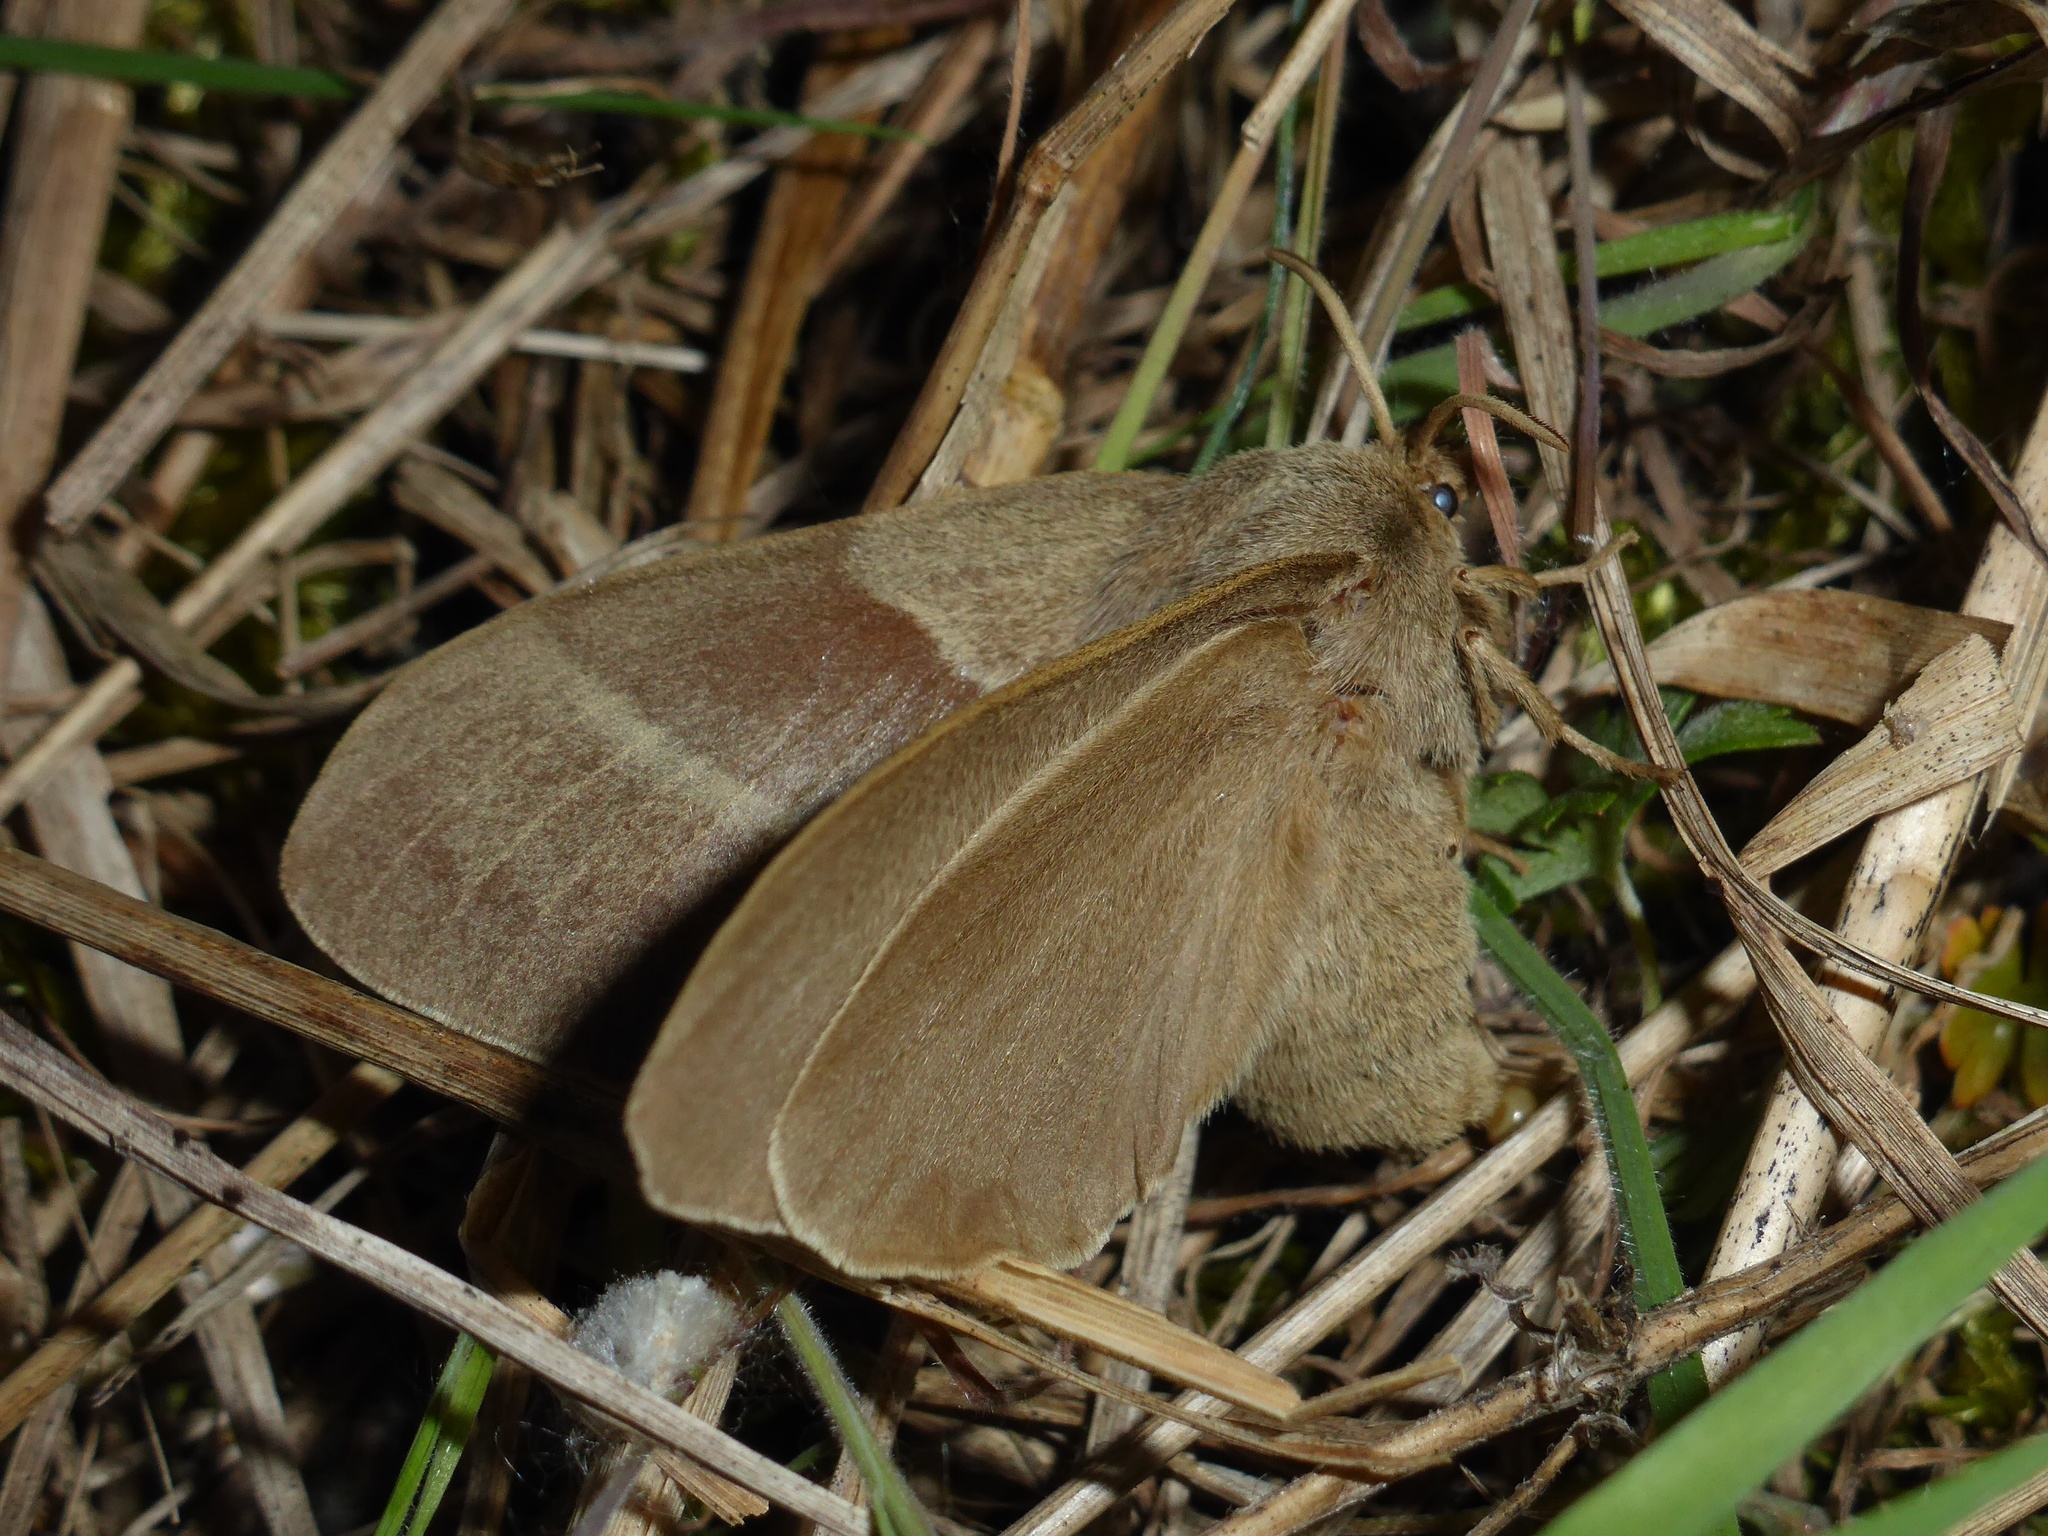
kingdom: Animalia
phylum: Arthropoda
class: Insecta
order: Lepidoptera
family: Lasiocampidae
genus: Macrothylacia
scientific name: Macrothylacia rubi
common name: Fox moth
